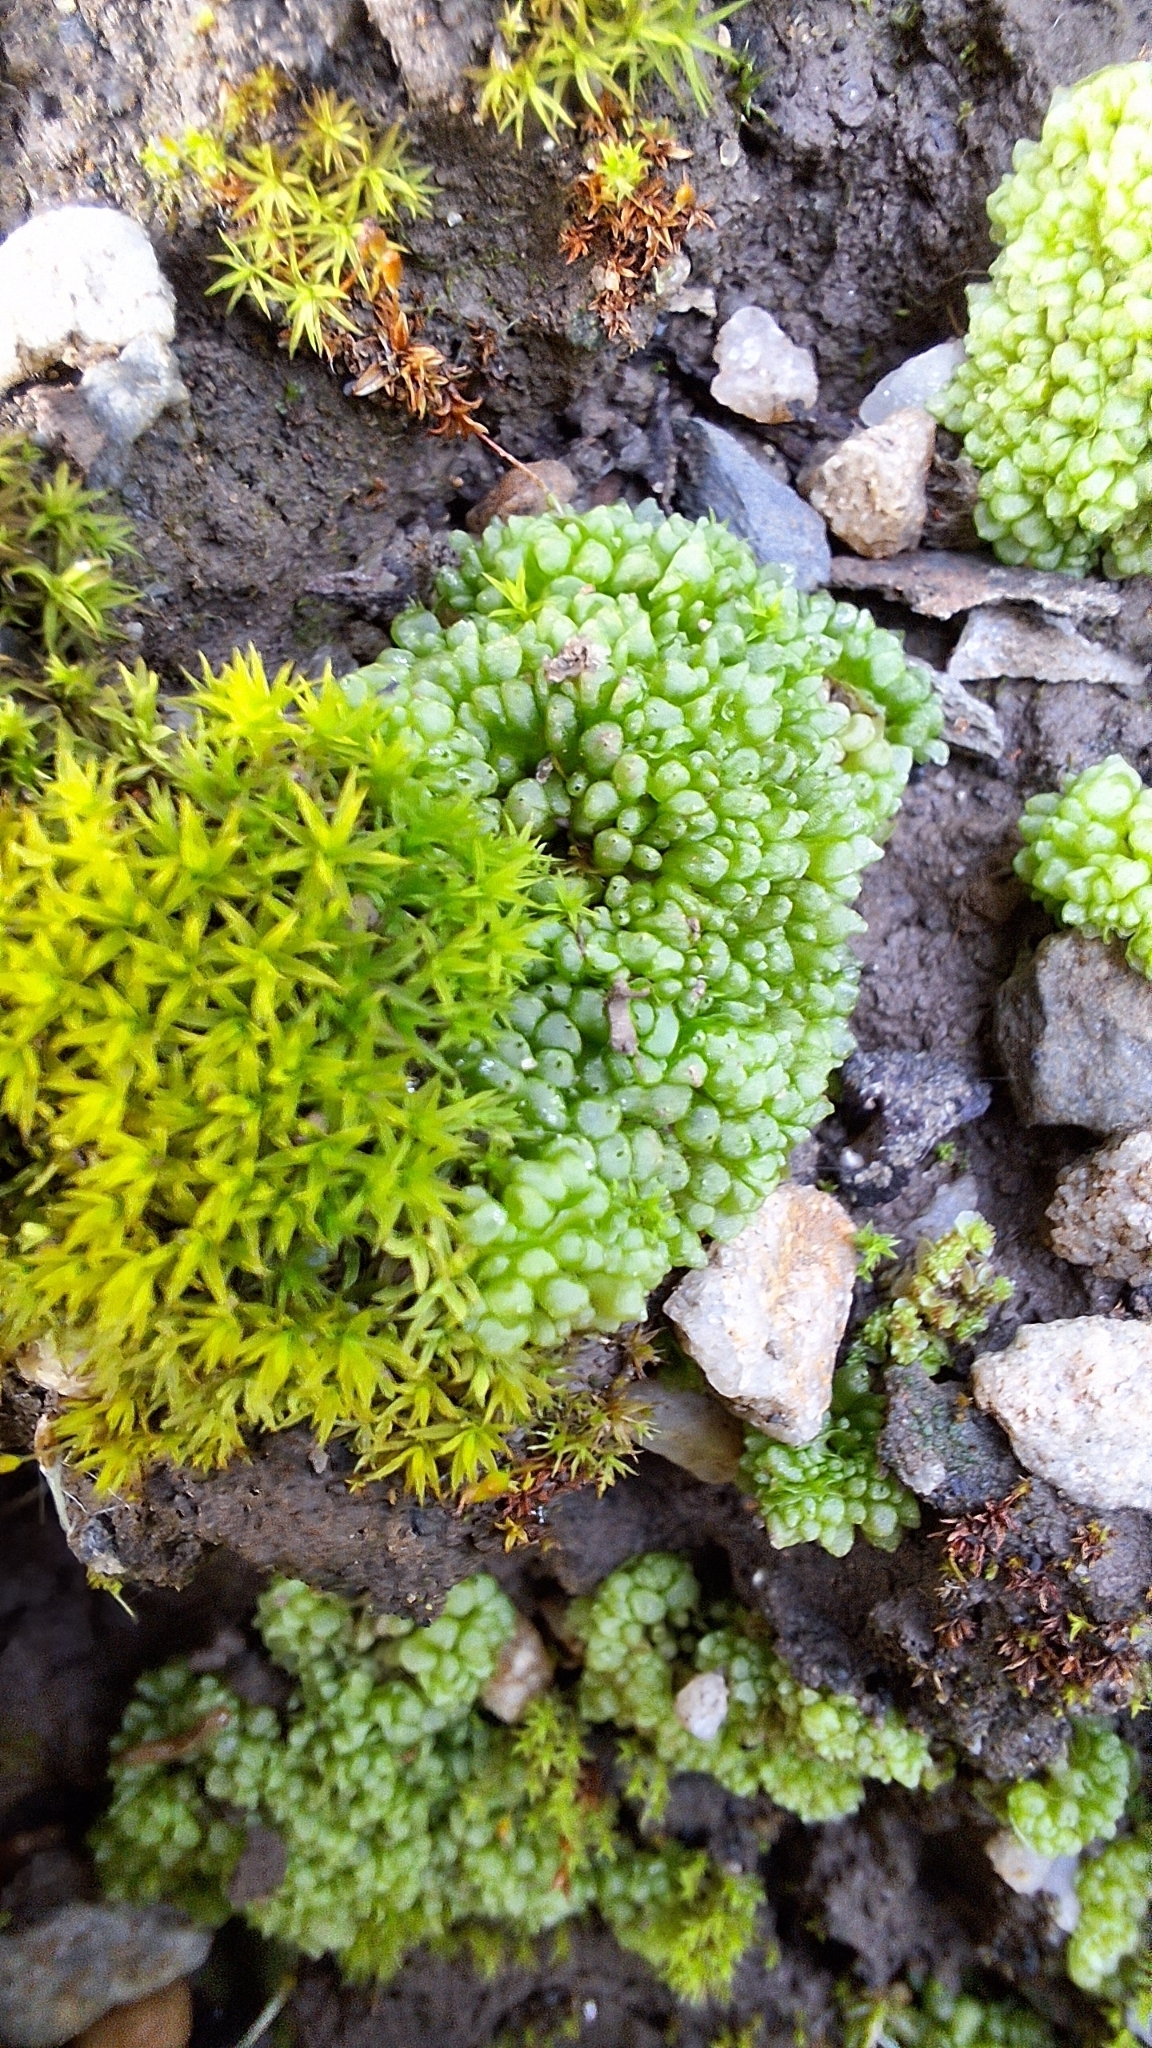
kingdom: Plantae
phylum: Marchantiophyta
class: Marchantiopsida
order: Sphaerocarpales
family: Sphaerocarpaceae
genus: Sphaerocarpos
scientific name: Sphaerocarpos texanus
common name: Texas balloonwort
